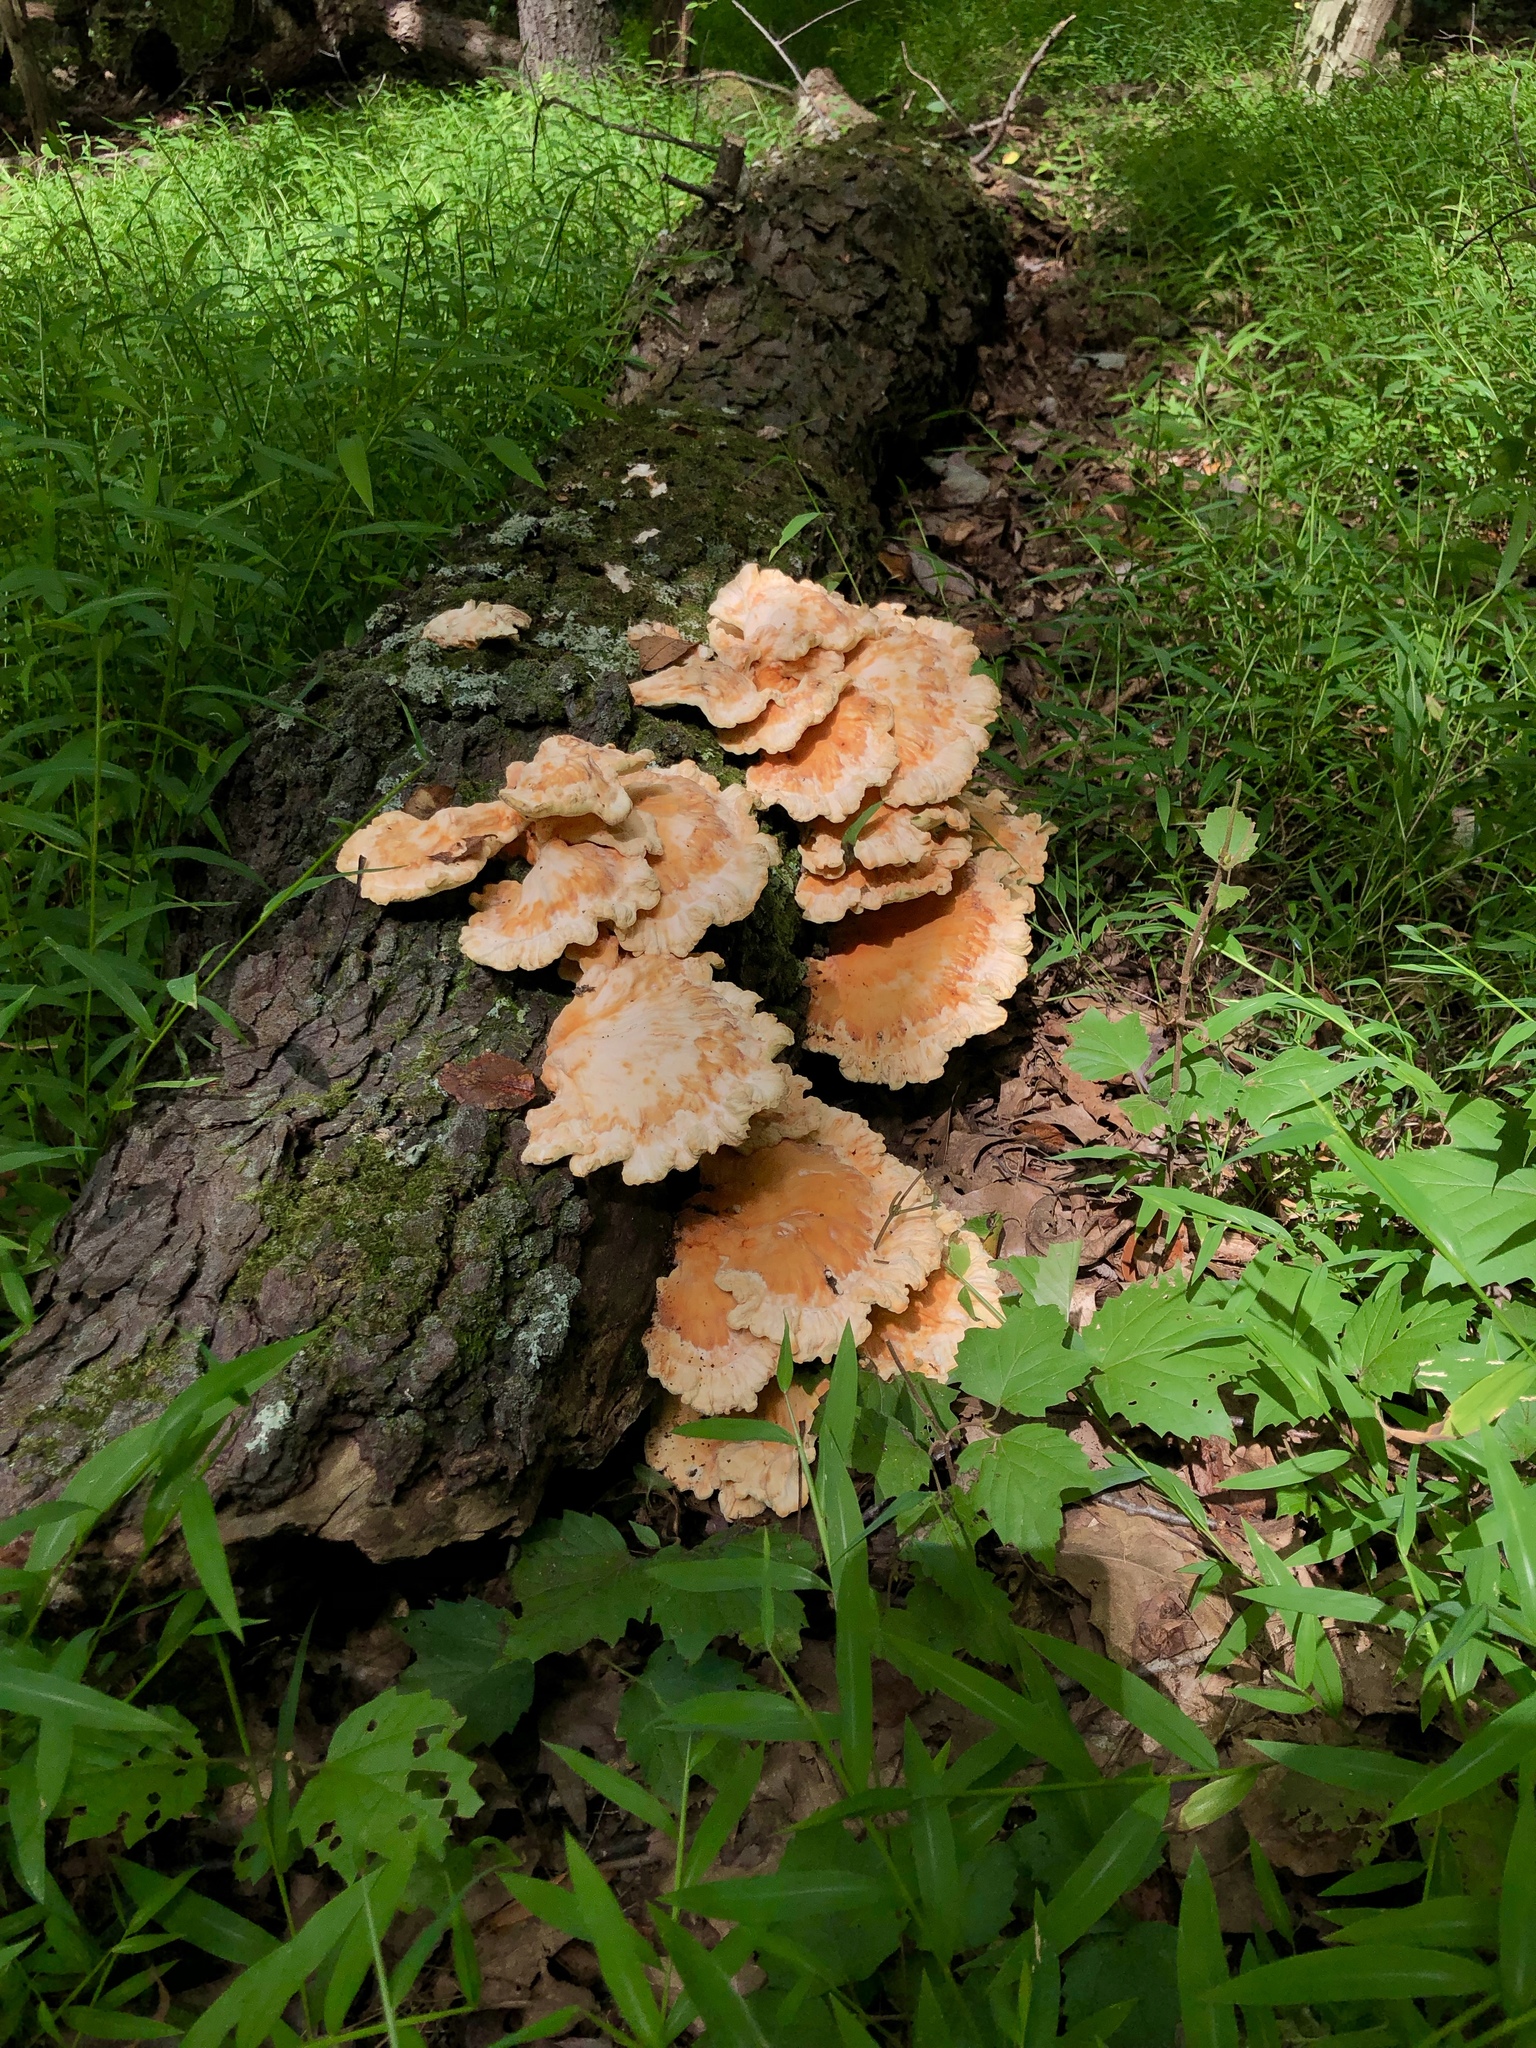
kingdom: Fungi
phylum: Basidiomycota
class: Agaricomycetes
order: Polyporales
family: Laetiporaceae
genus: Laetiporus
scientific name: Laetiporus sulphureus
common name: Chicken of the woods
